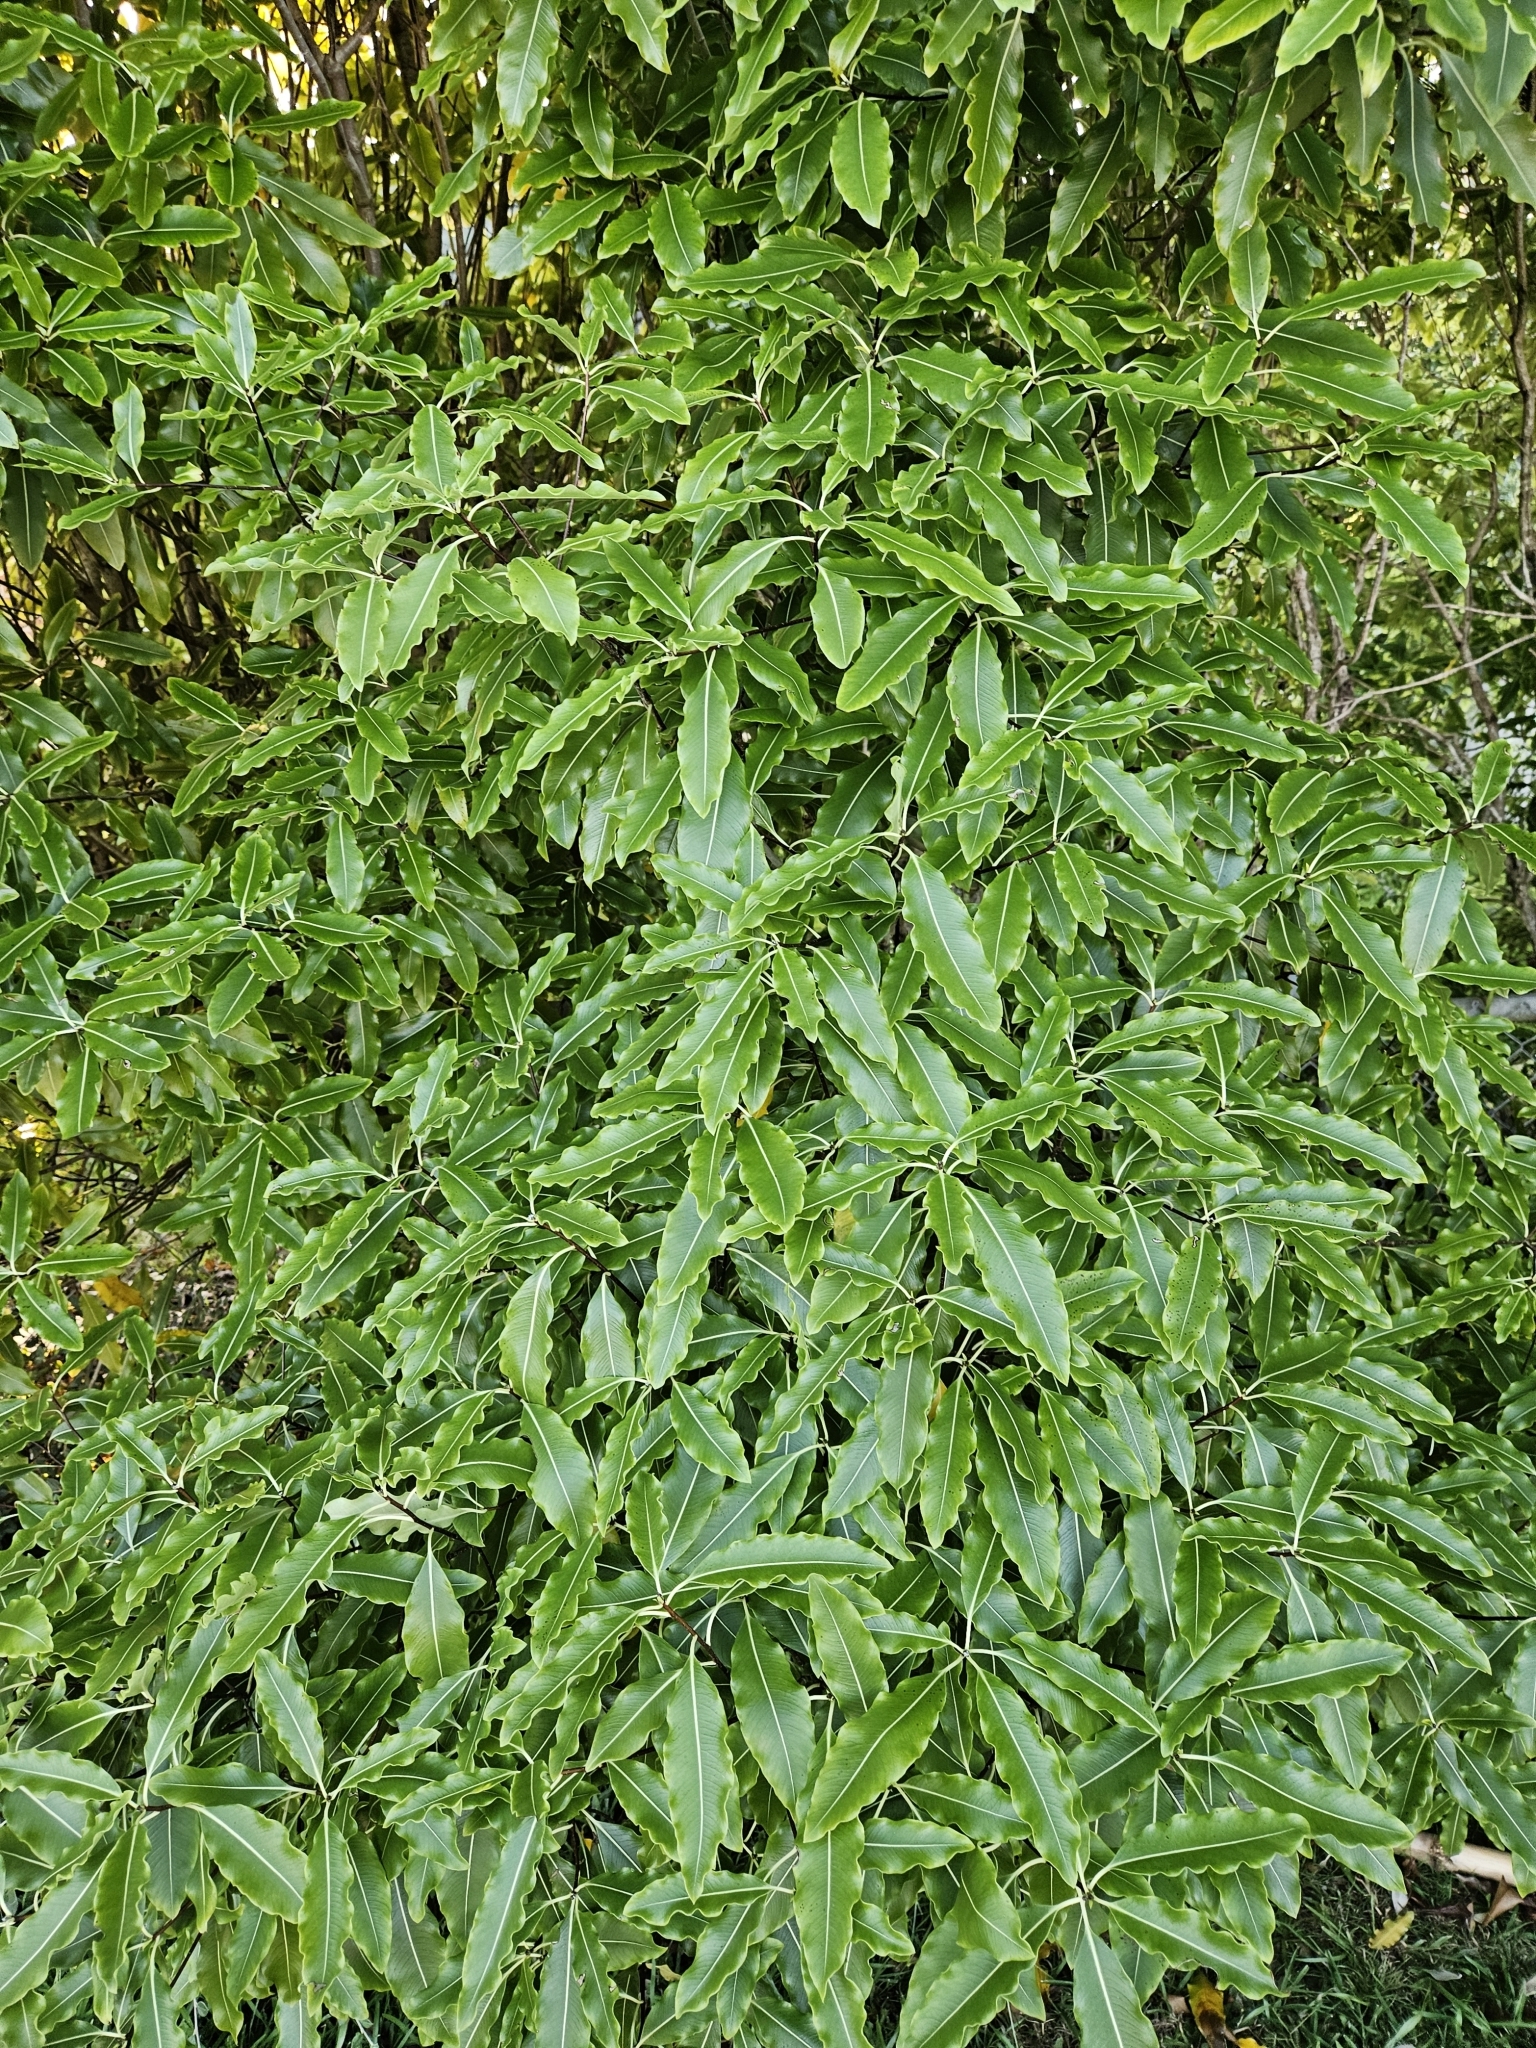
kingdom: Plantae
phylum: Tracheophyta
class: Magnoliopsida
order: Apiales
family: Pittosporaceae
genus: Pittosporum
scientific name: Pittosporum eugenioides
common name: Lemonwood
